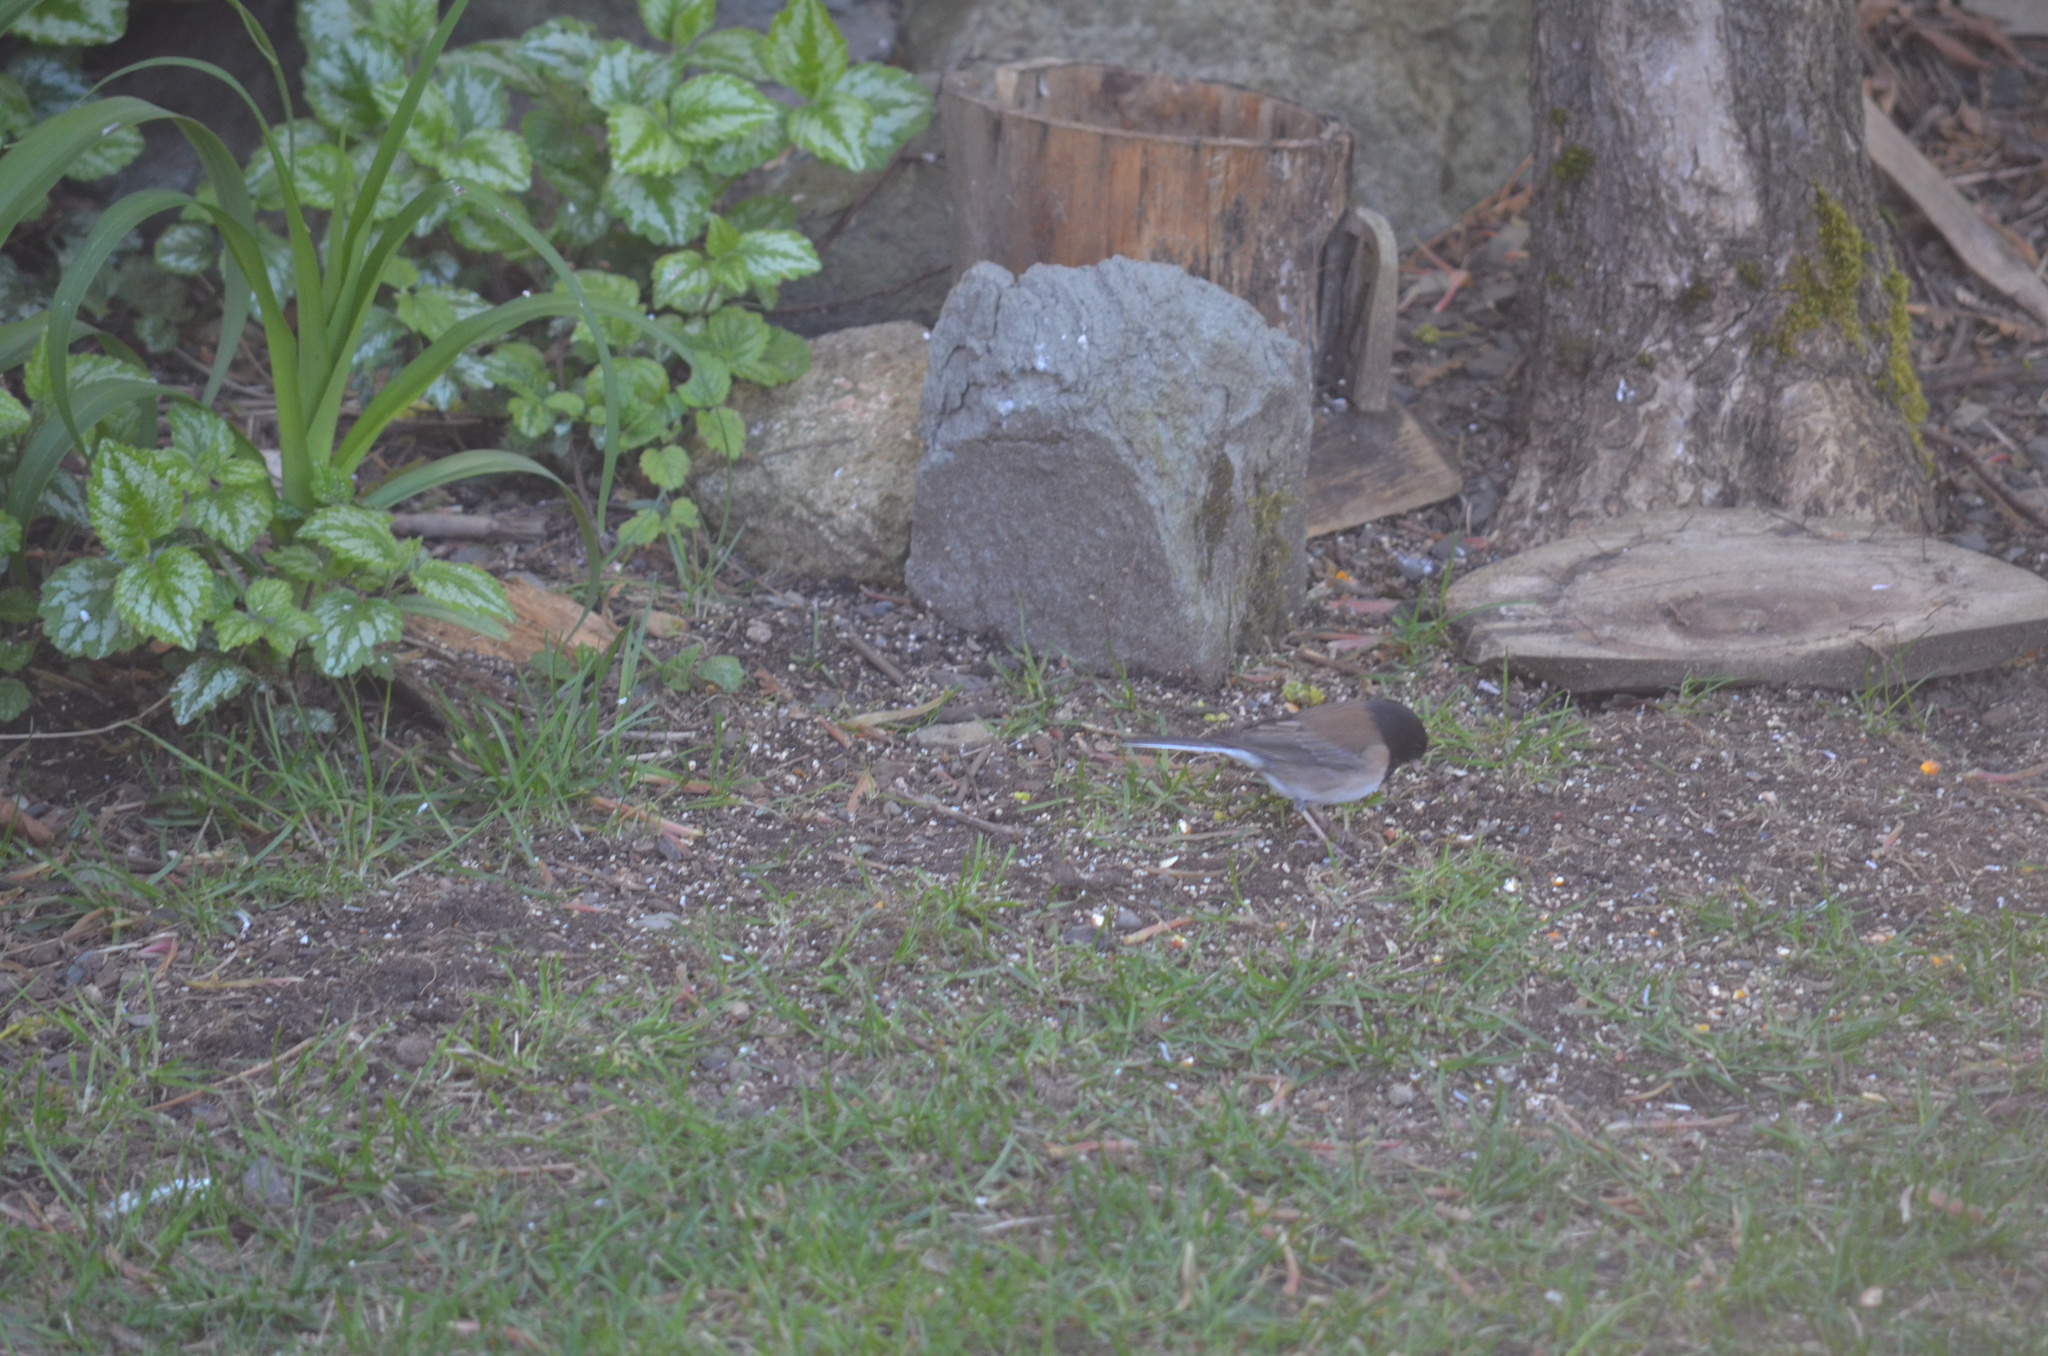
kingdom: Animalia
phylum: Chordata
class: Aves
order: Passeriformes
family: Passerellidae
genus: Junco
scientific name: Junco hyemalis
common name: Dark-eyed junco
